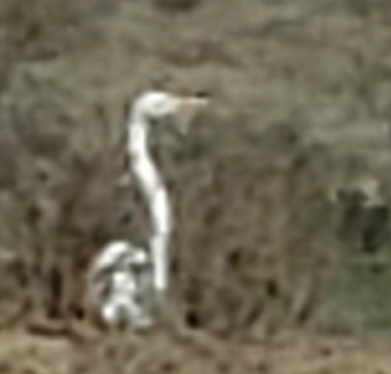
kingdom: Animalia
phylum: Chordata
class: Aves
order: Pelecaniformes
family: Ardeidae
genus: Ardea
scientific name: Ardea alba
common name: Great egret
